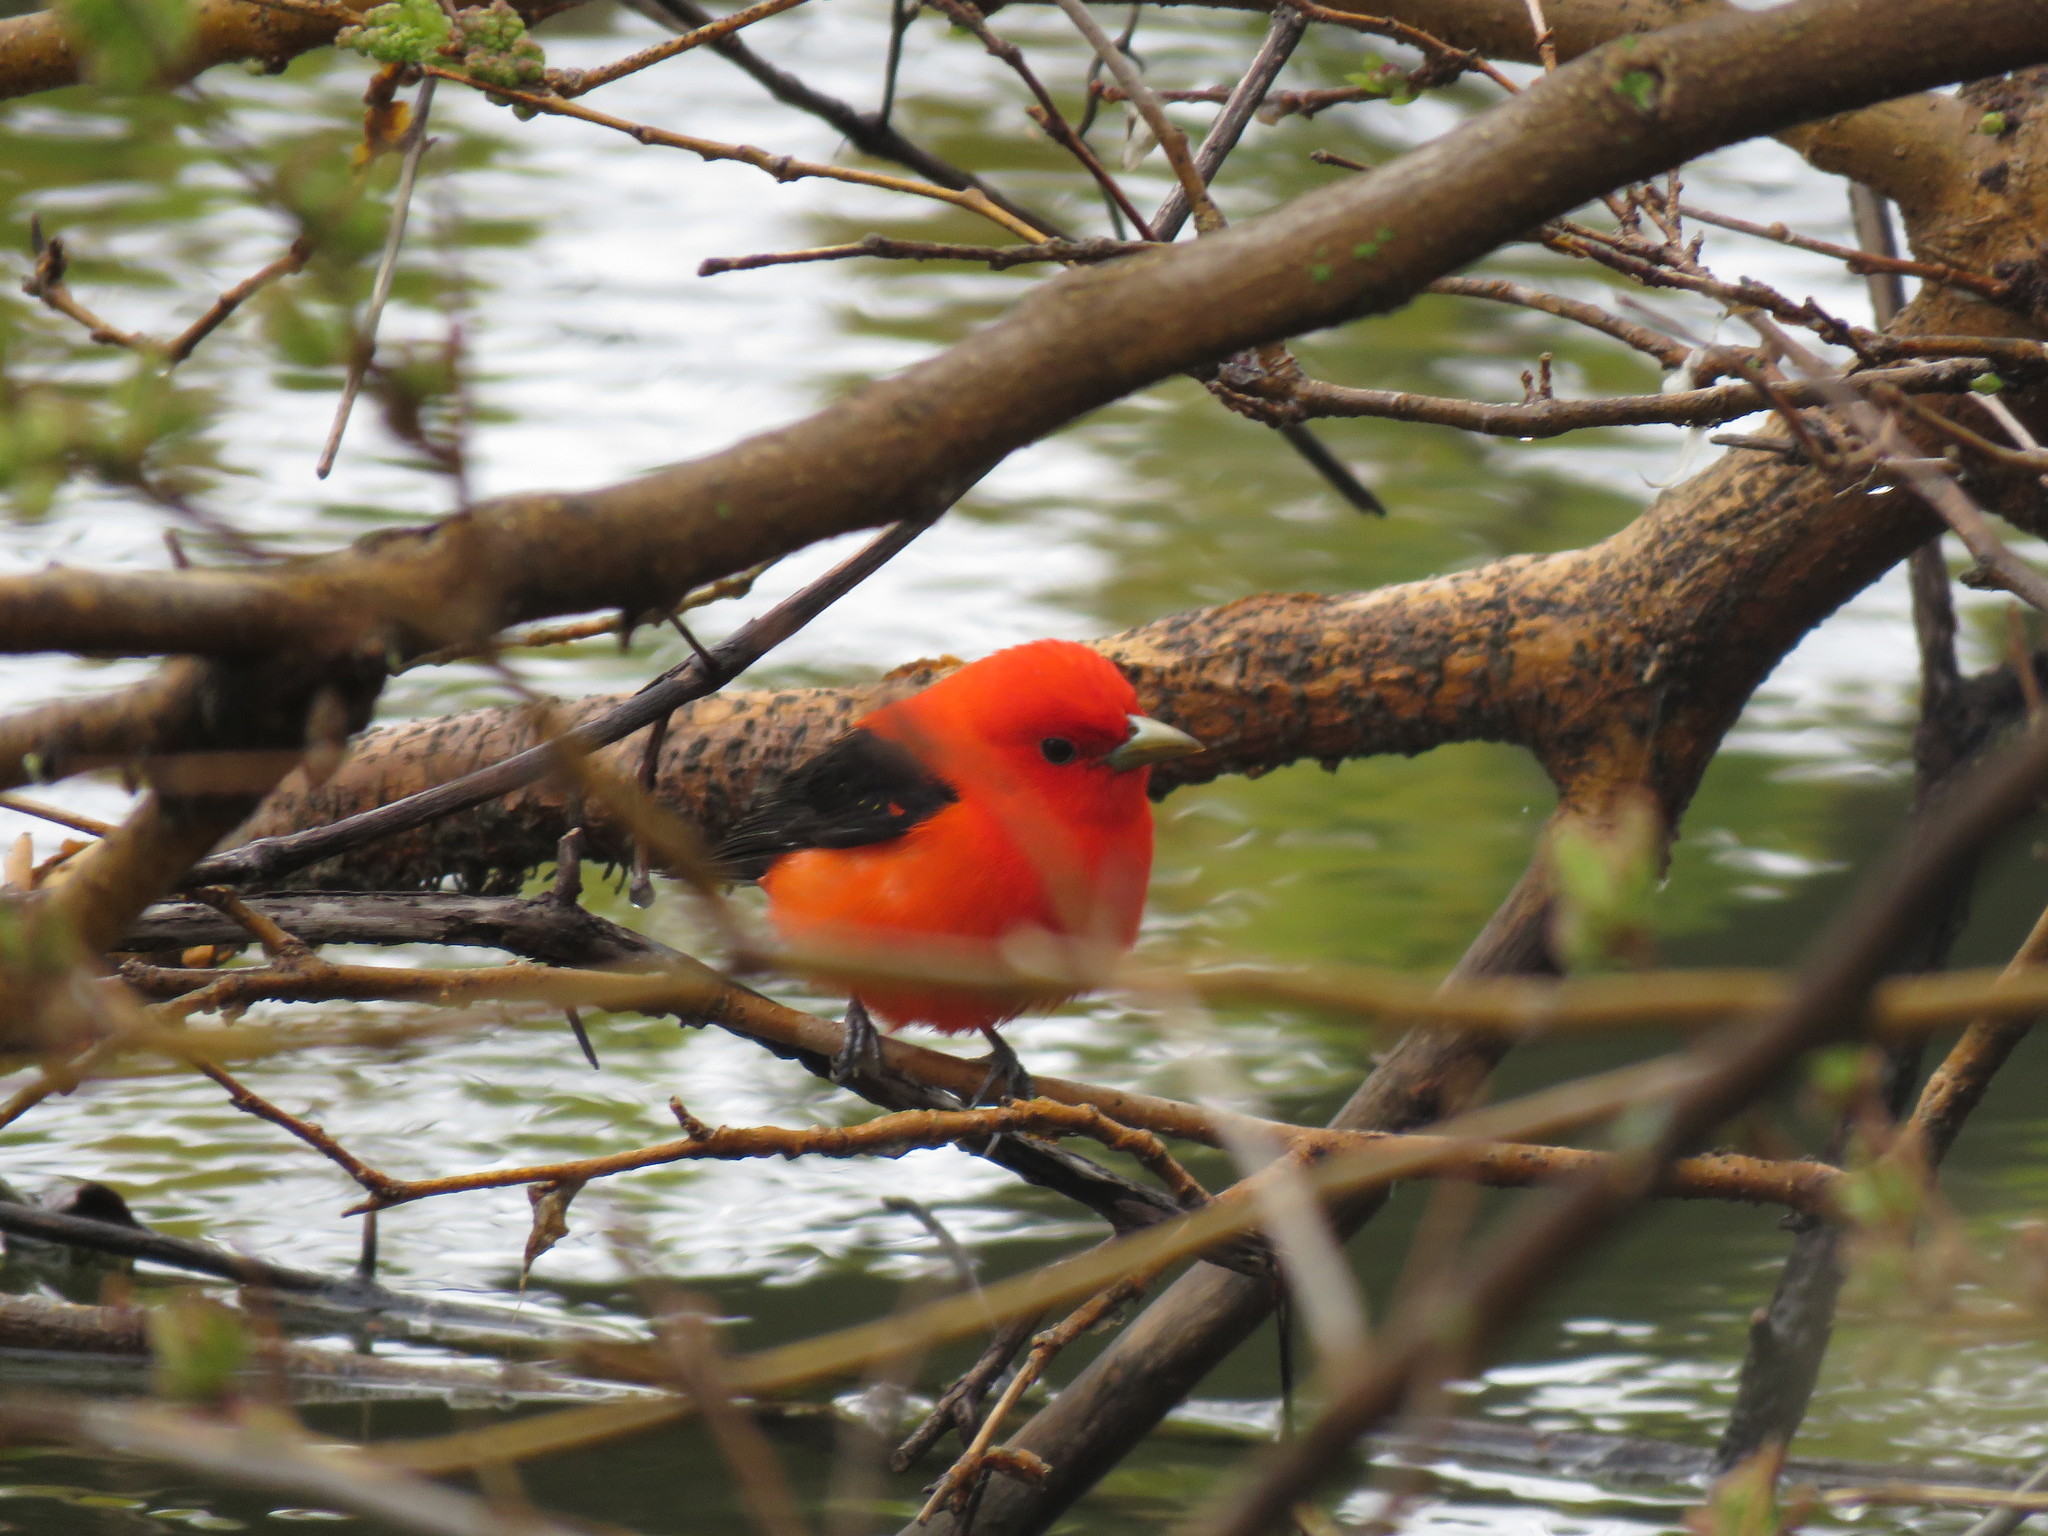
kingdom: Animalia
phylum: Chordata
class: Aves
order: Passeriformes
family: Cardinalidae
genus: Piranga
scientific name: Piranga olivacea
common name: Scarlet tanager
